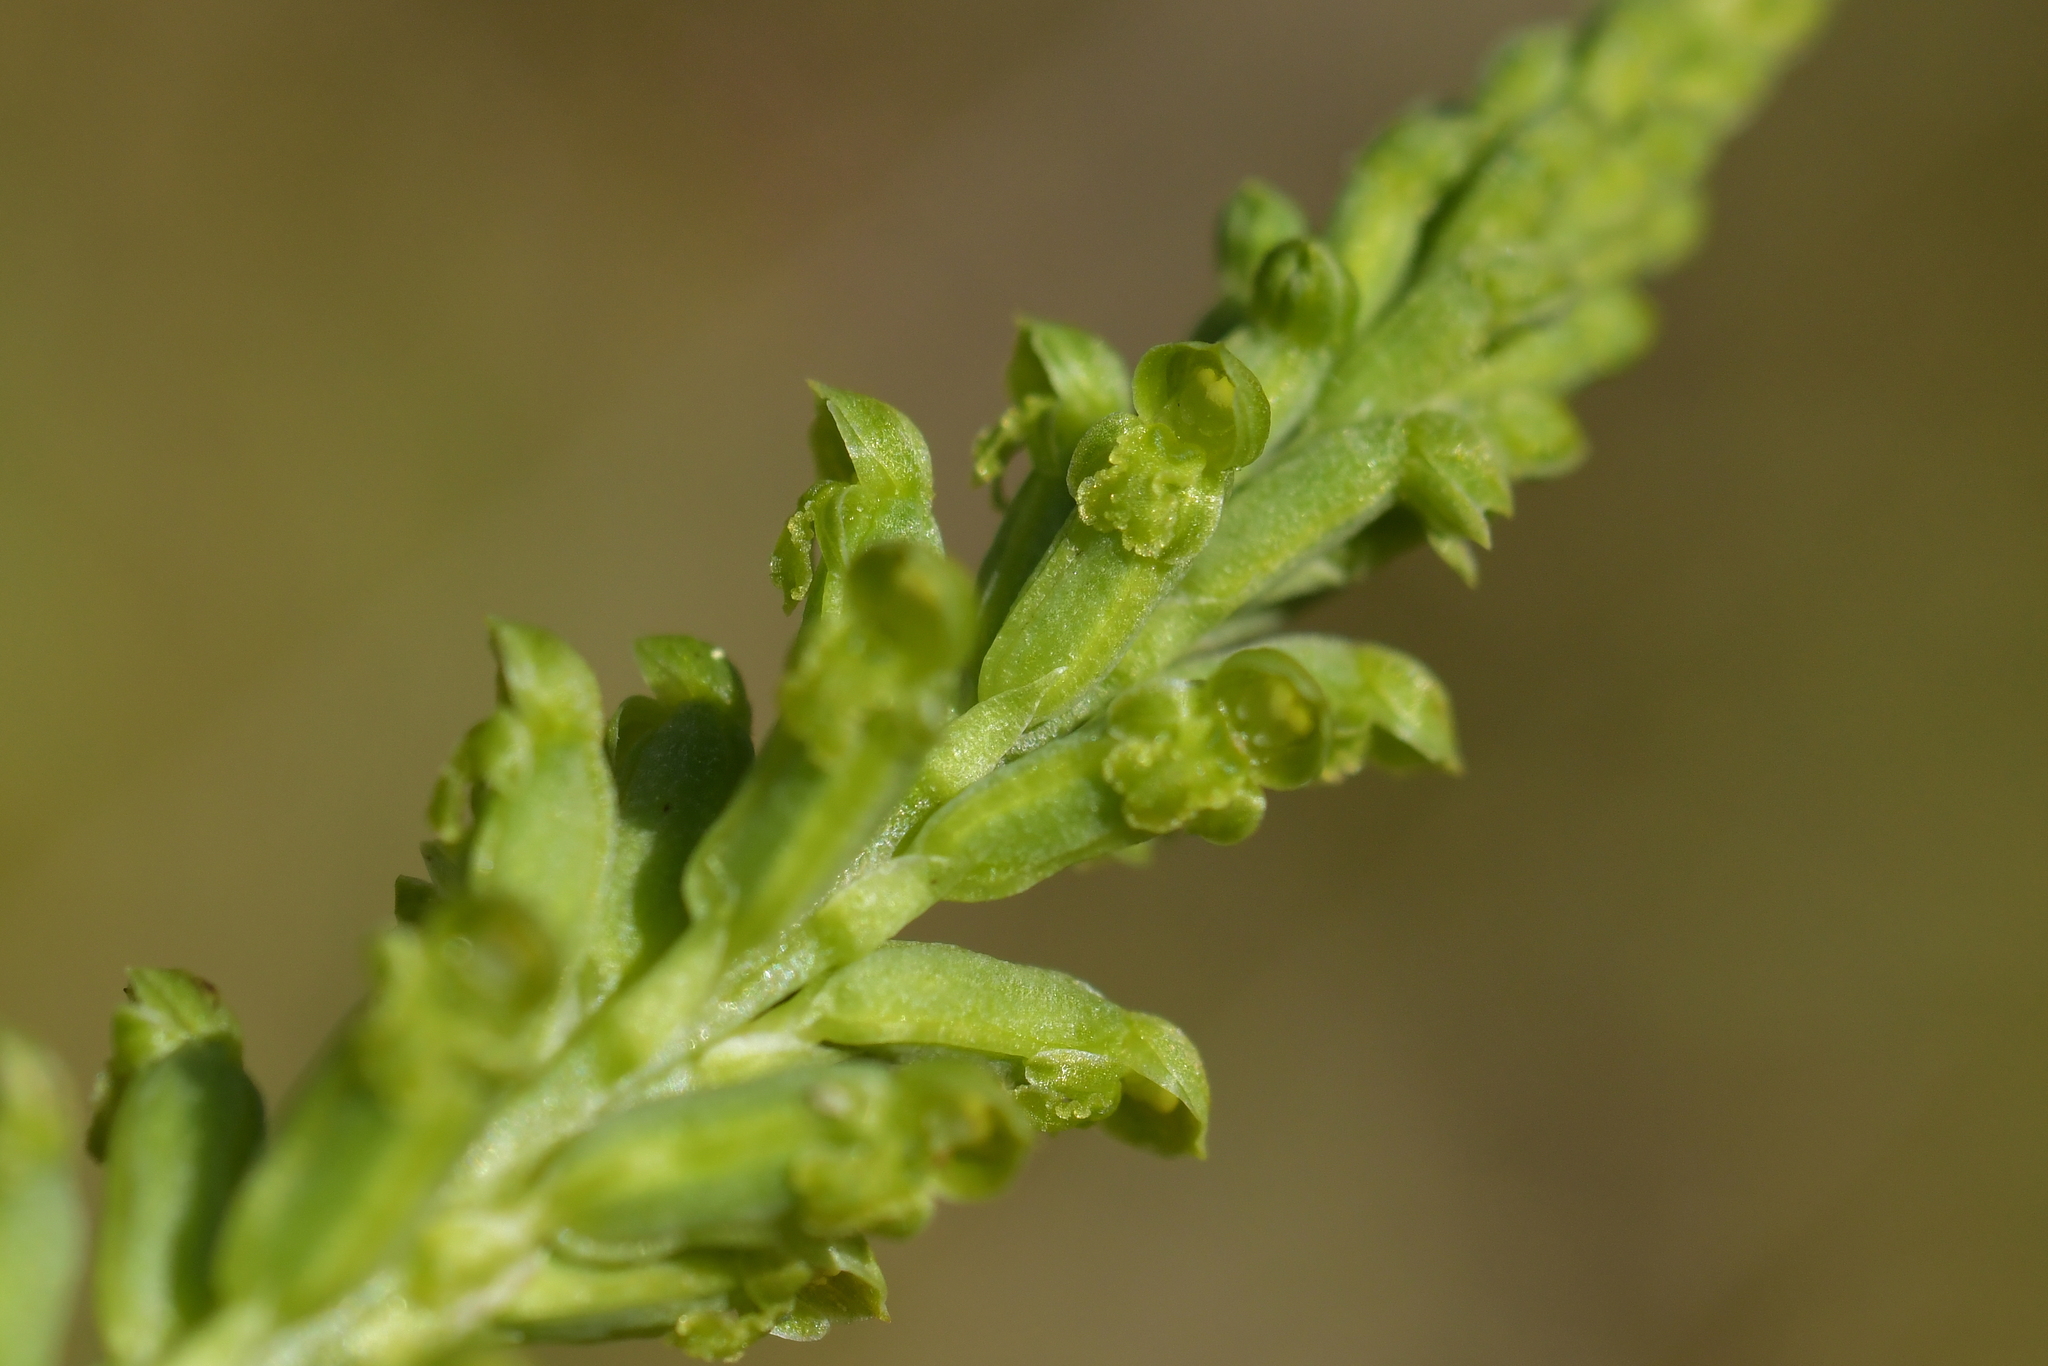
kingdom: Plantae
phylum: Tracheophyta
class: Liliopsida
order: Asparagales
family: Orchidaceae
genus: Microtis
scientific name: Microtis unifolia
